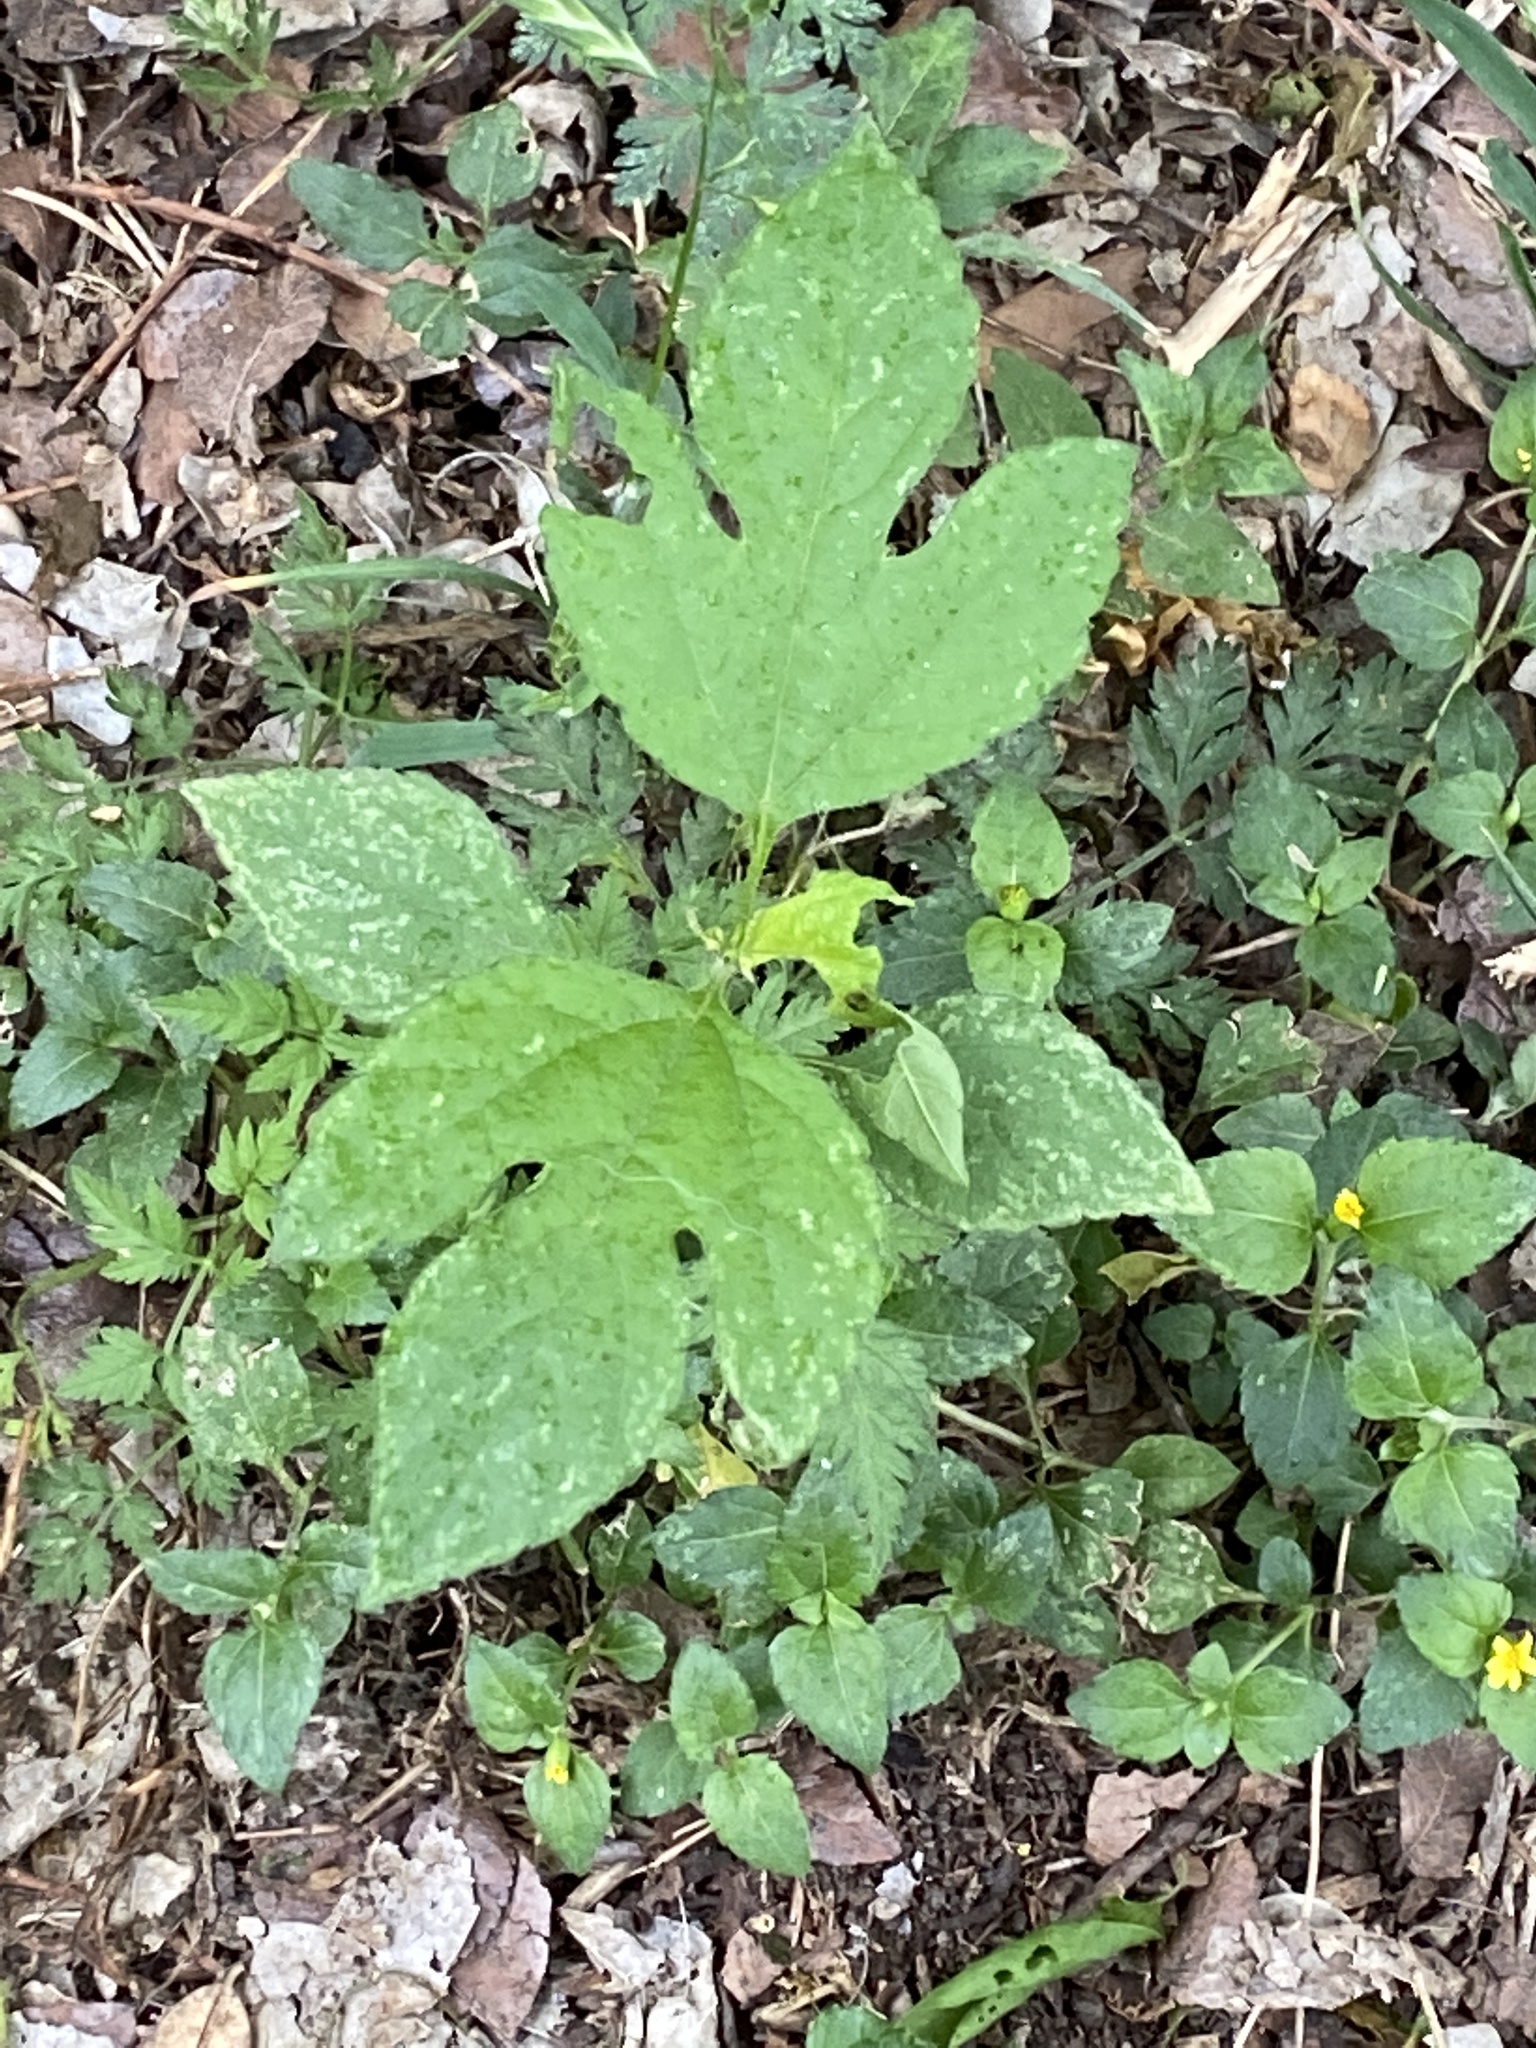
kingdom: Plantae
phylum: Tracheophyta
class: Magnoliopsida
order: Asterales
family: Asteraceae
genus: Ambrosia
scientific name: Ambrosia trifida
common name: Giant ragweed
